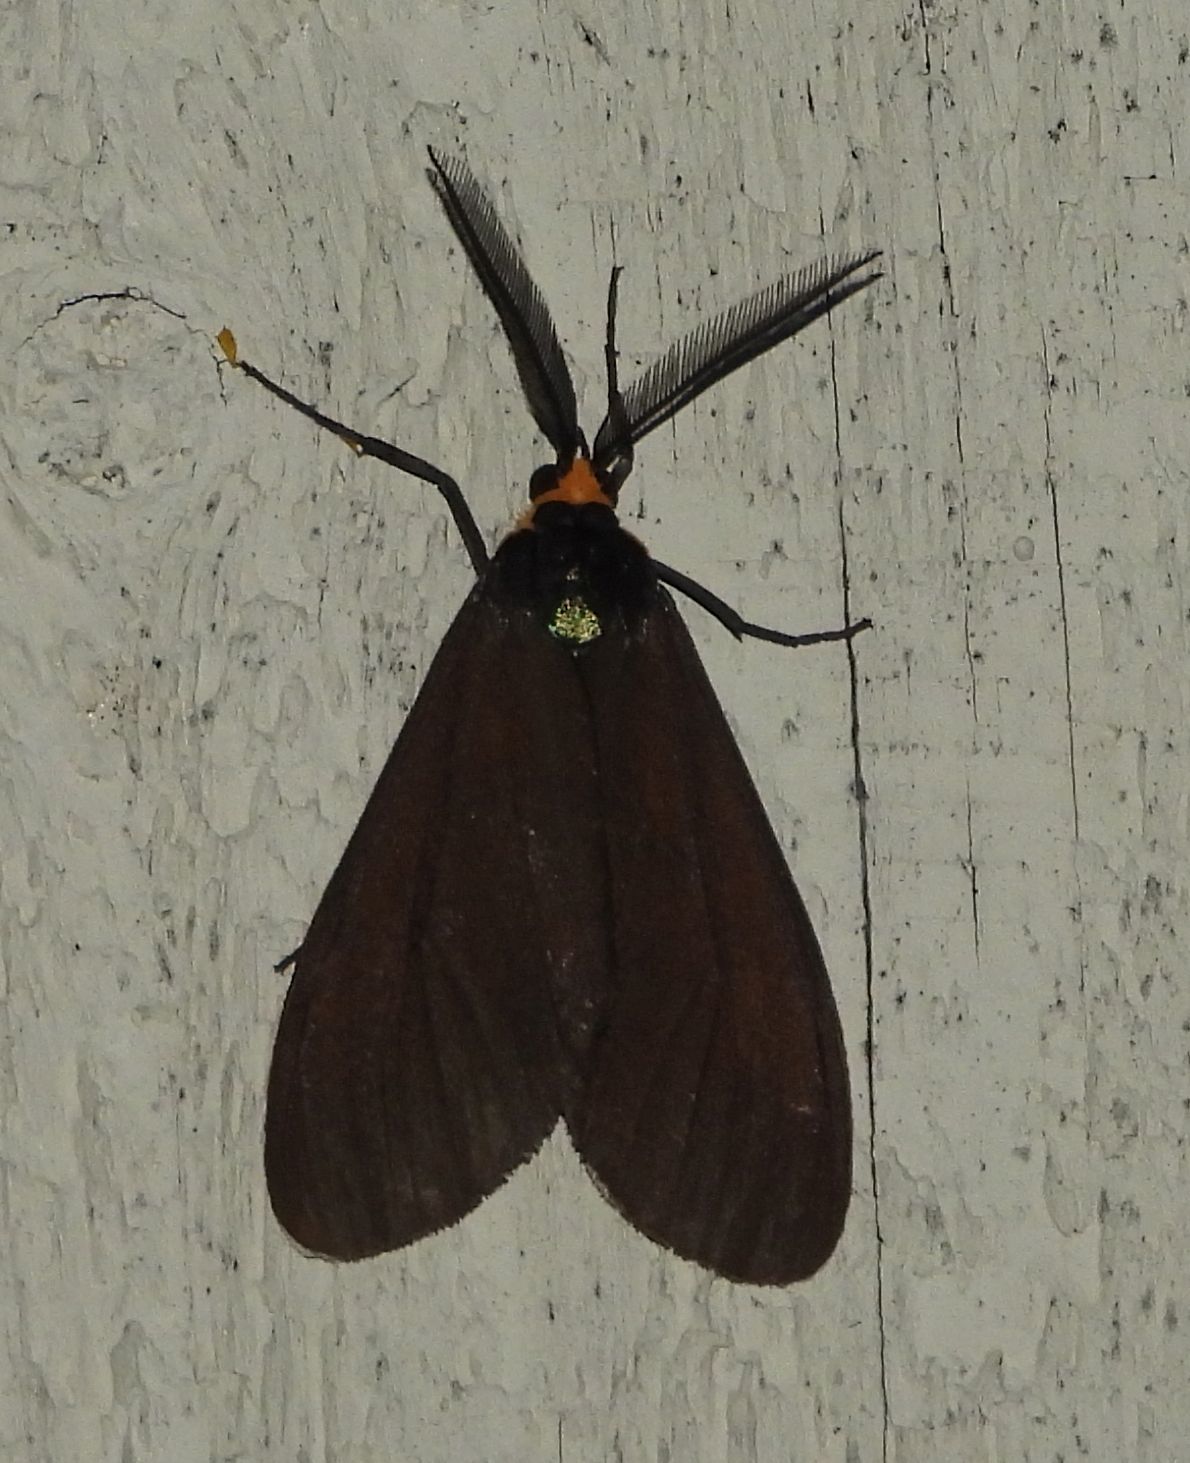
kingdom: Animalia
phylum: Arthropoda
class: Insecta
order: Lepidoptera
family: Erebidae
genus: Ctenucha
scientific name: Ctenucha virginica
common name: Virginia ctenucha moth
